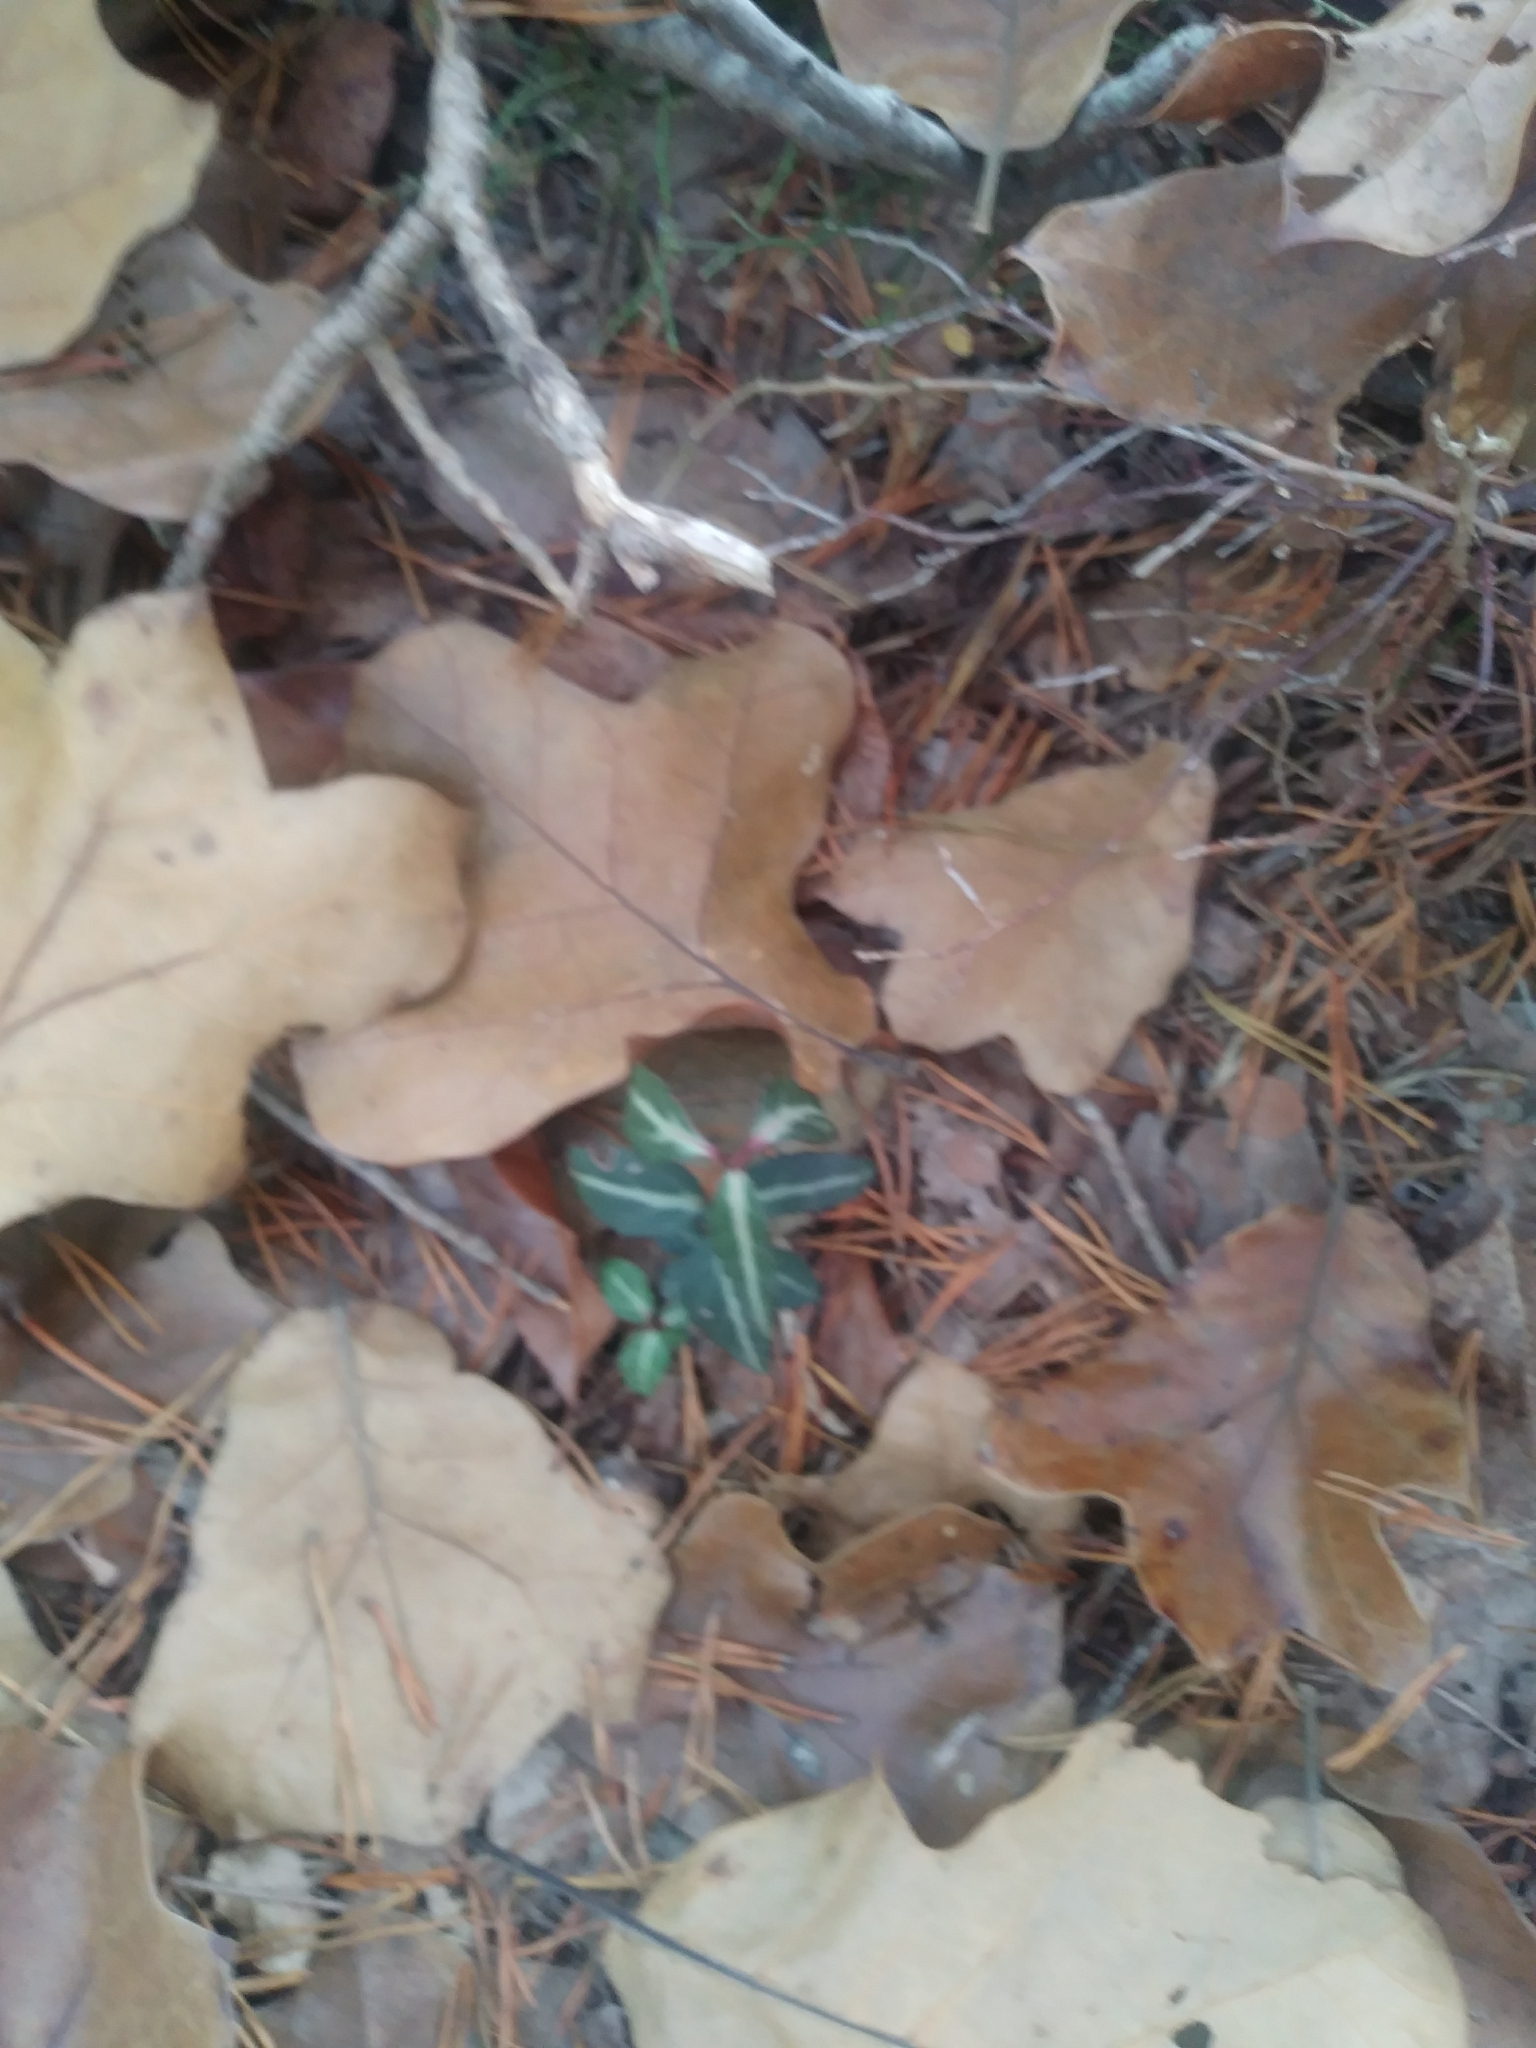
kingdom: Plantae
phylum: Tracheophyta
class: Magnoliopsida
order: Ericales
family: Ericaceae
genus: Chimaphila
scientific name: Chimaphila maculata
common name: Spotted pipsissewa
